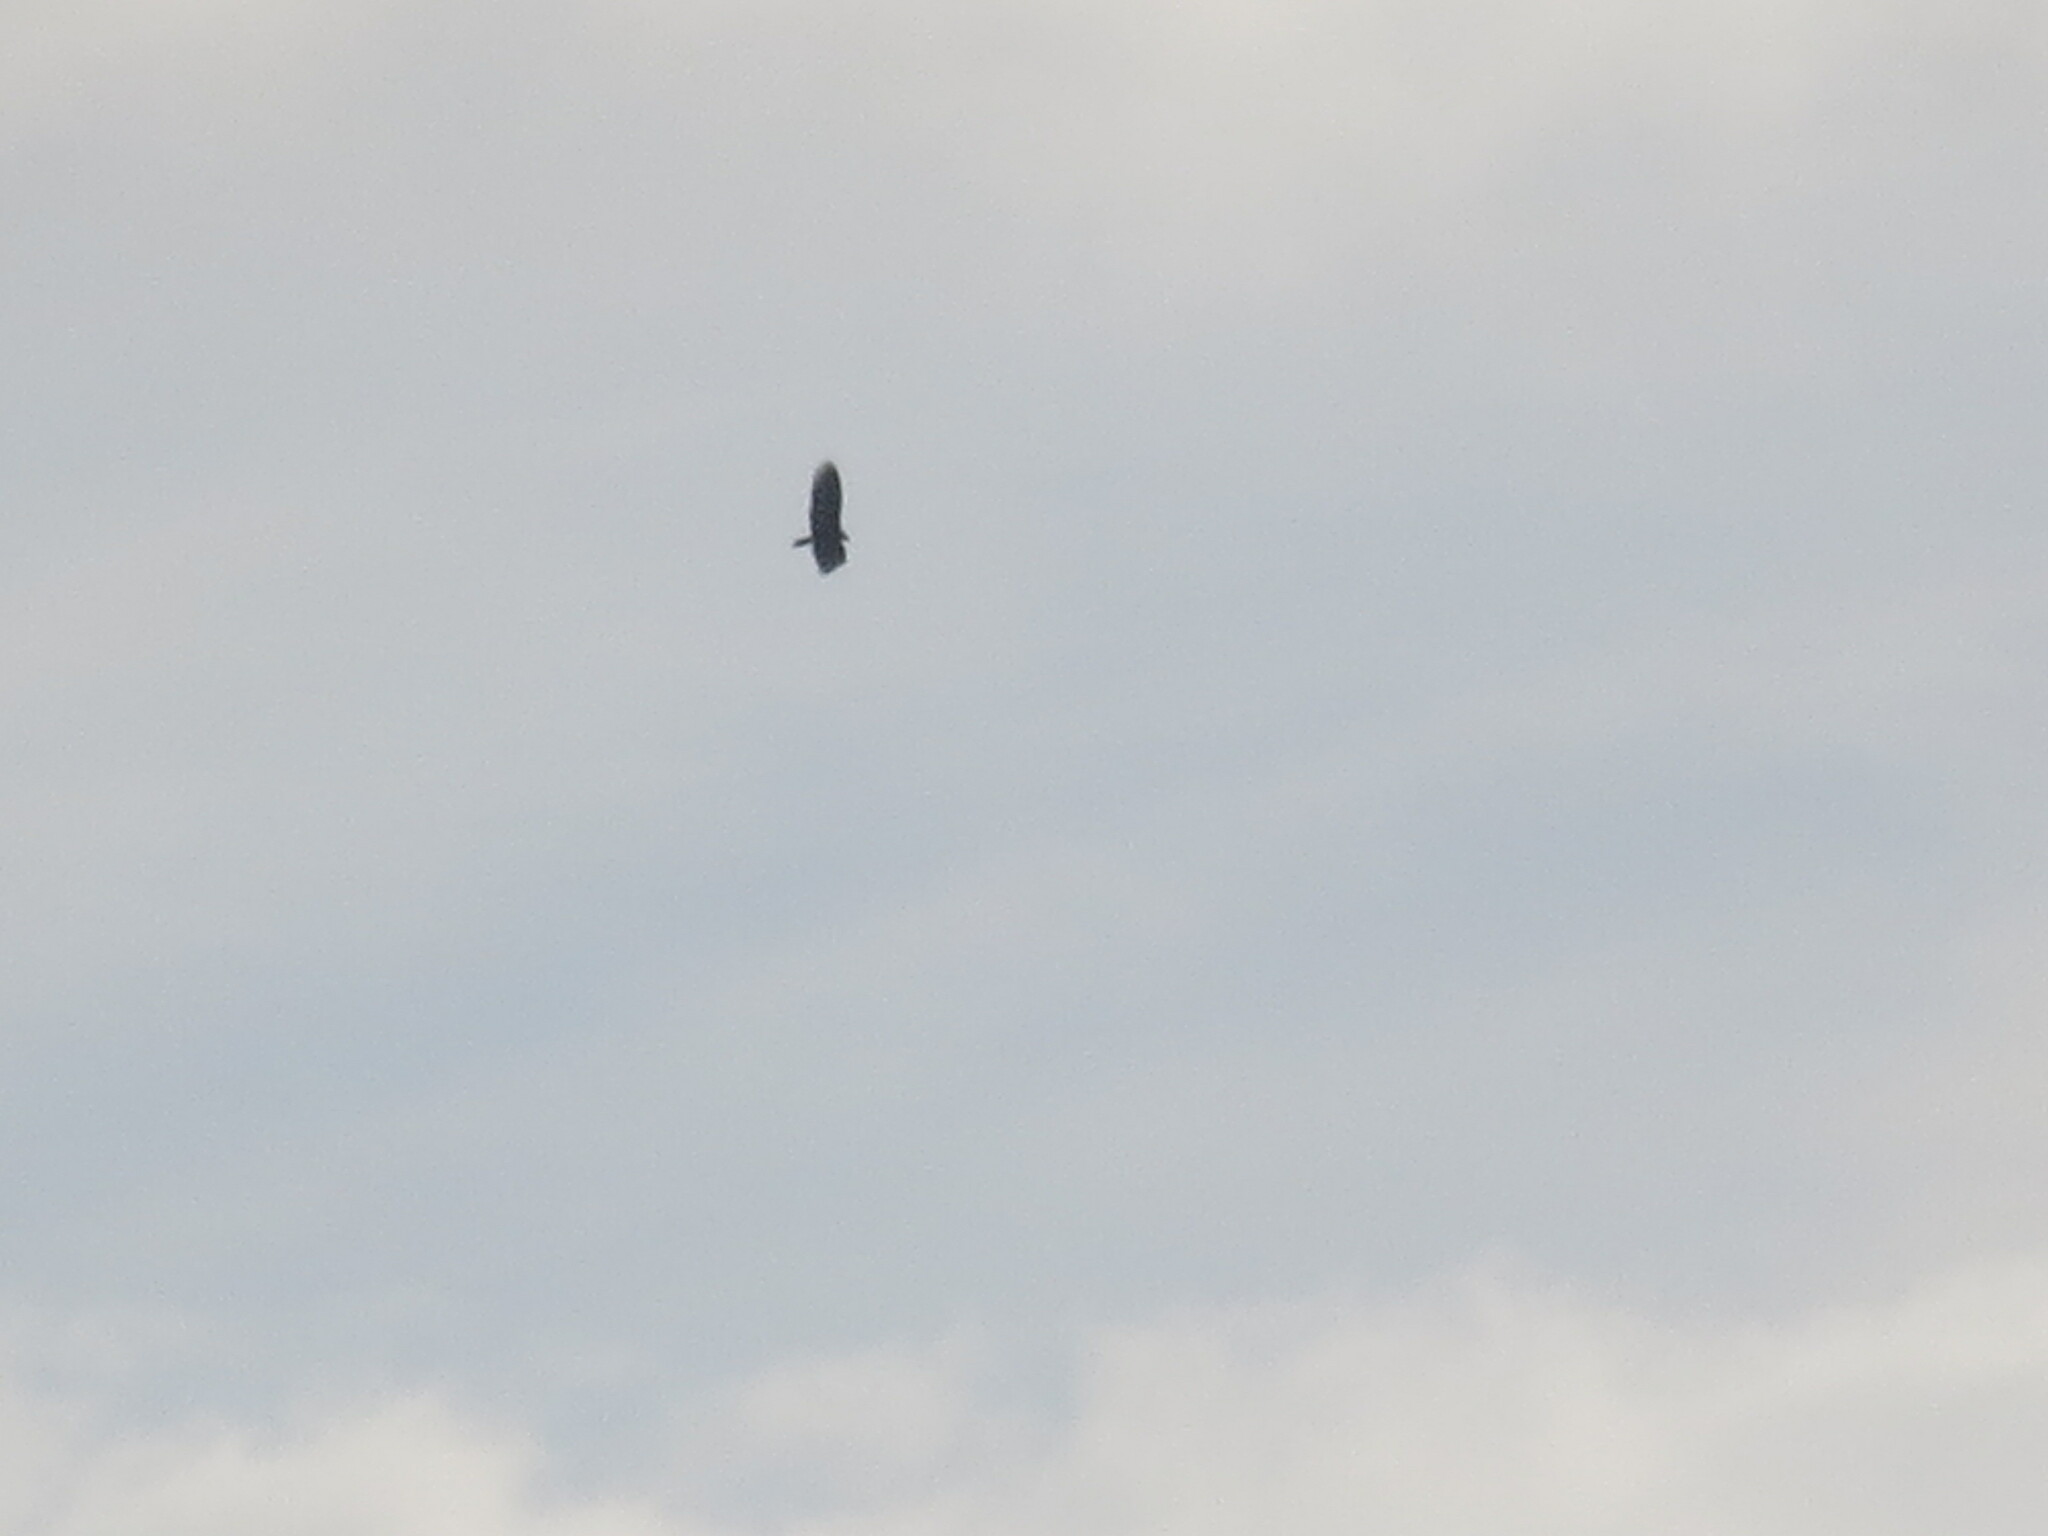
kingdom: Animalia
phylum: Chordata
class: Aves
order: Accipitriformes
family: Cathartidae
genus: Cathartes
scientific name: Cathartes aura
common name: Turkey vulture
